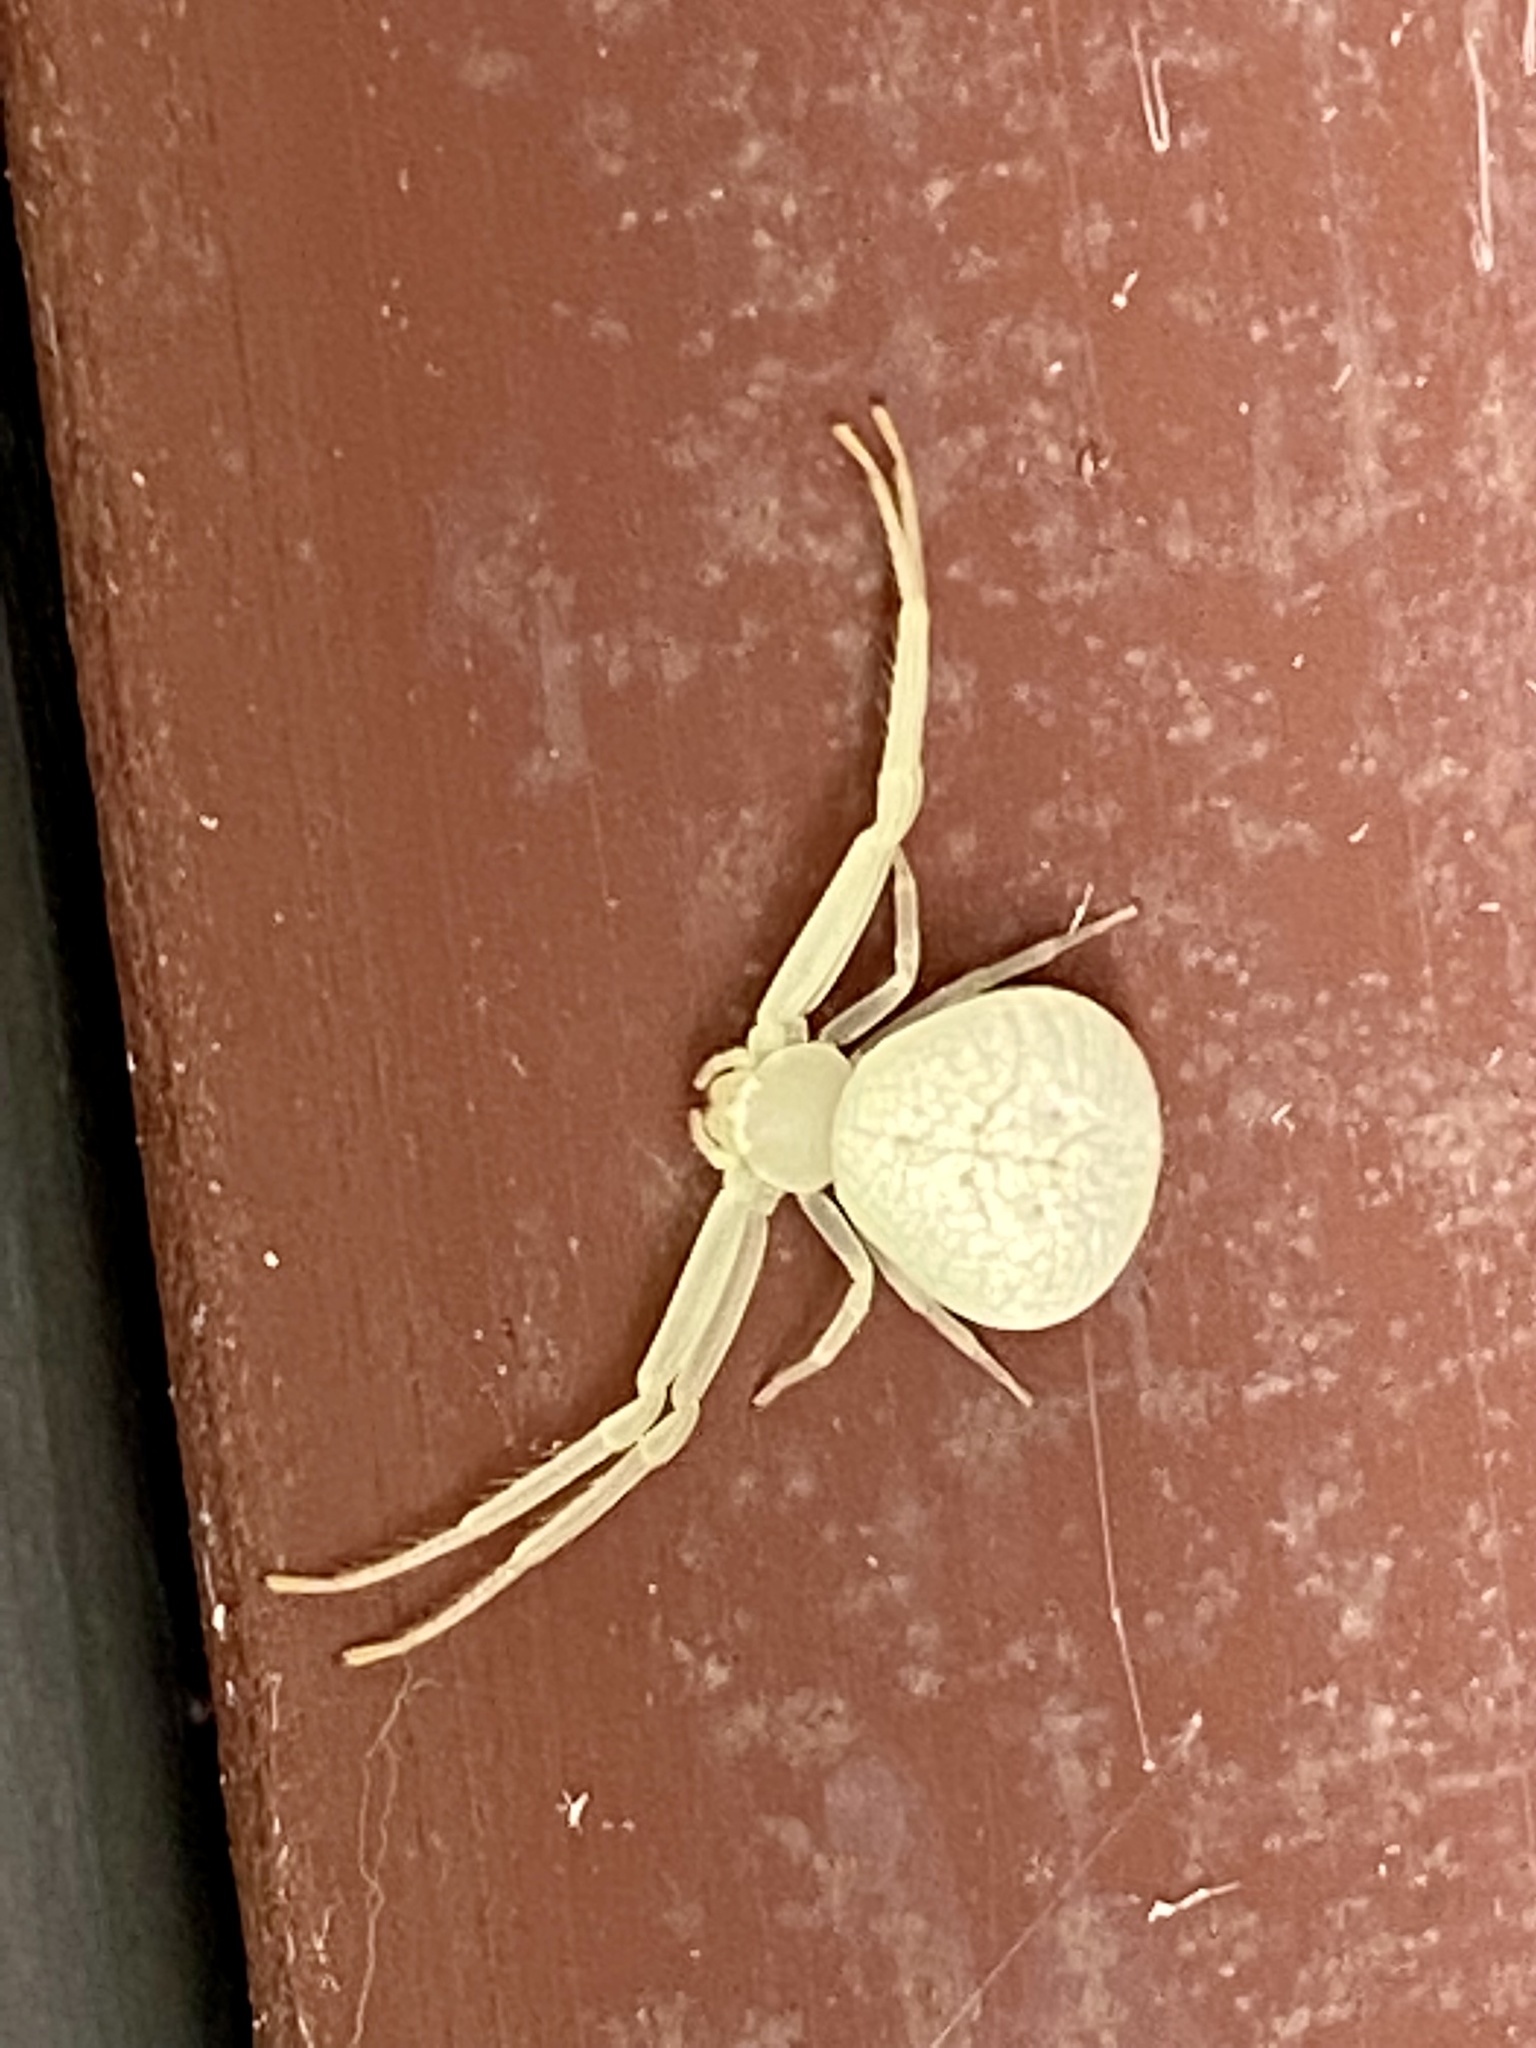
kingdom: Animalia
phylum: Arthropoda
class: Arachnida
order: Araneae
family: Thomisidae
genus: Misumessus
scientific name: Misumessus oblongus
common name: American green crab spider
